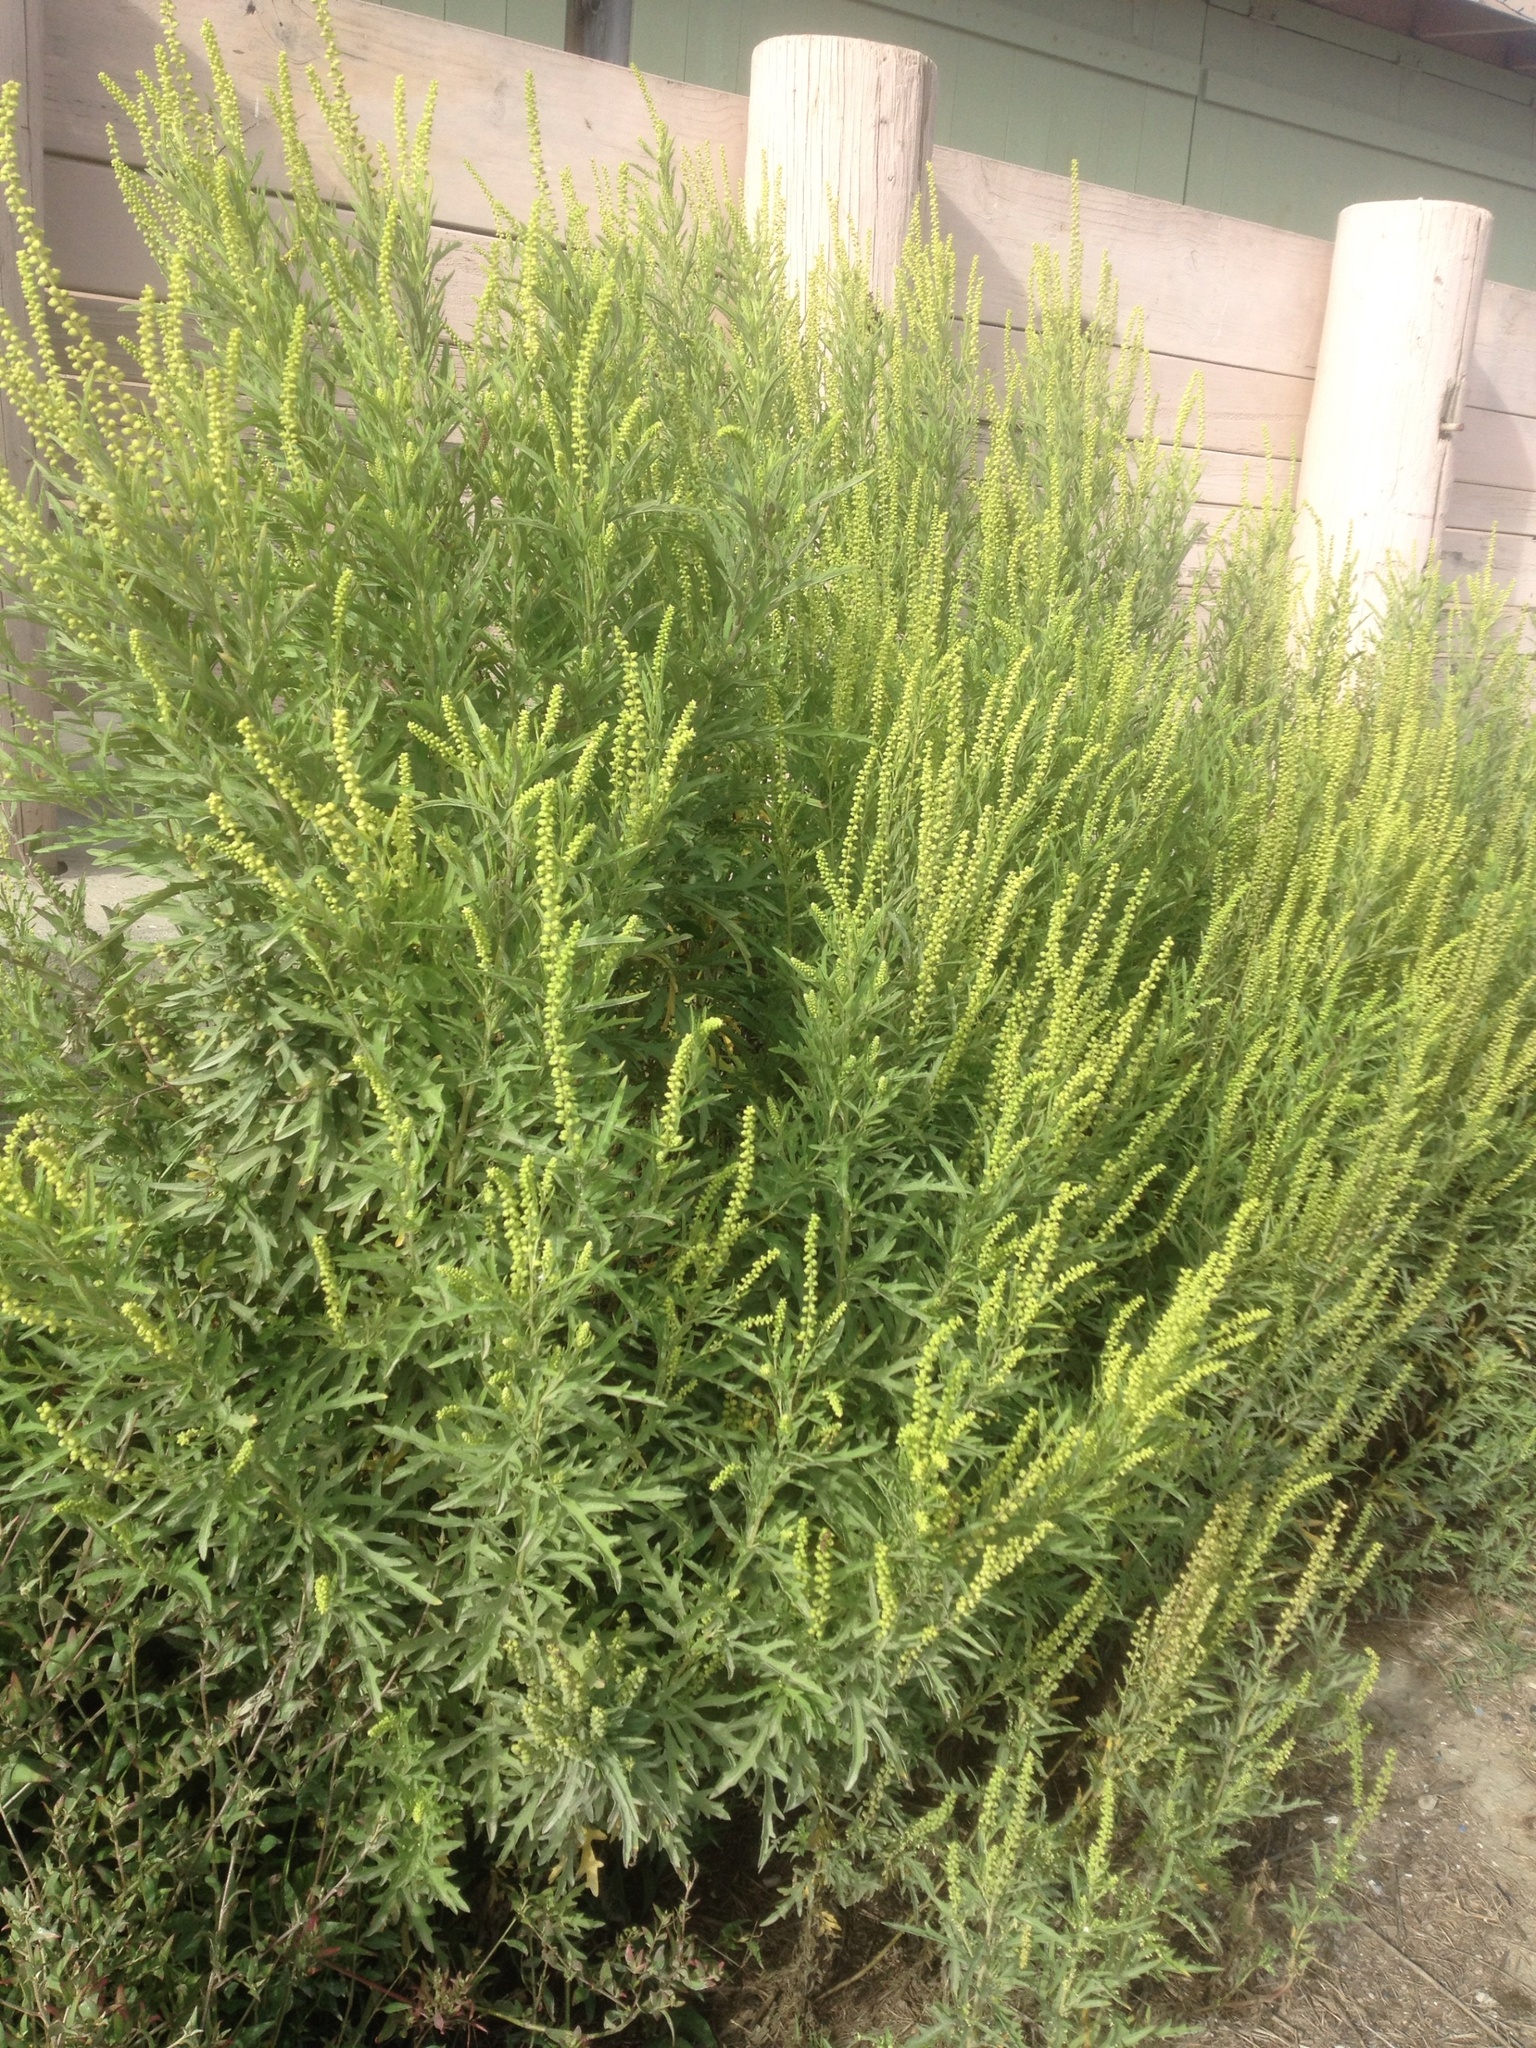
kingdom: Plantae
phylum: Tracheophyta
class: Magnoliopsida
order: Asterales
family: Asteraceae
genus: Ambrosia
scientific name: Ambrosia psilostachya
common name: Perennial ragweed
